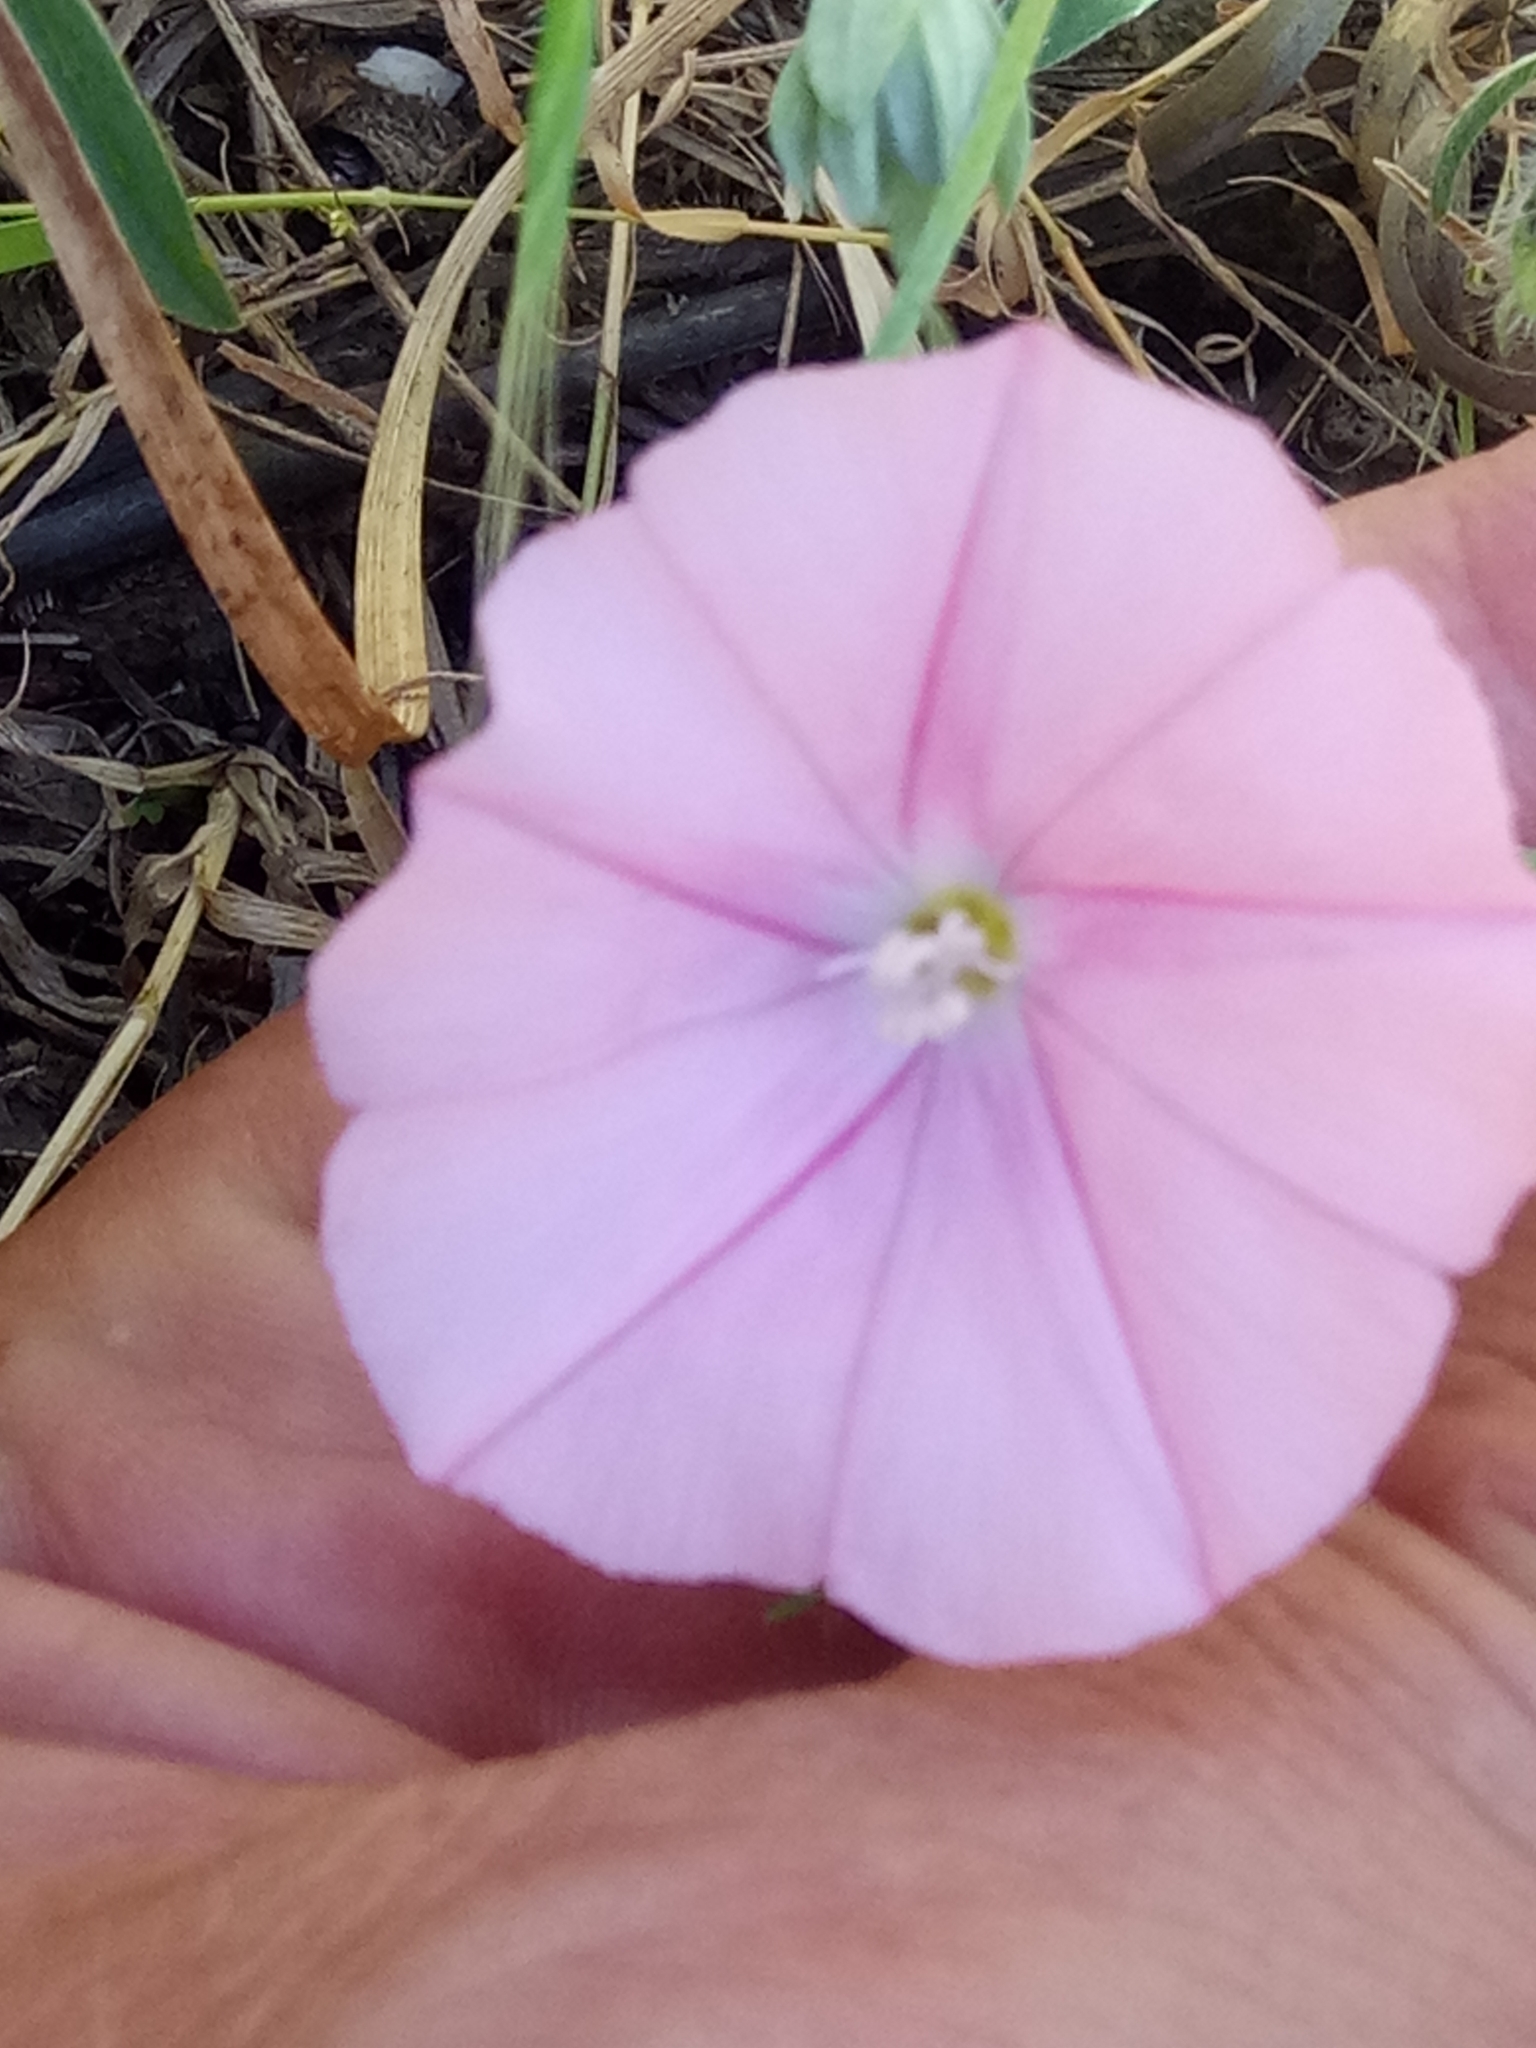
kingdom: Plantae
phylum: Tracheophyta
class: Magnoliopsida
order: Solanales
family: Convolvulaceae
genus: Convolvulus
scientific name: Convolvulus cantabrica
